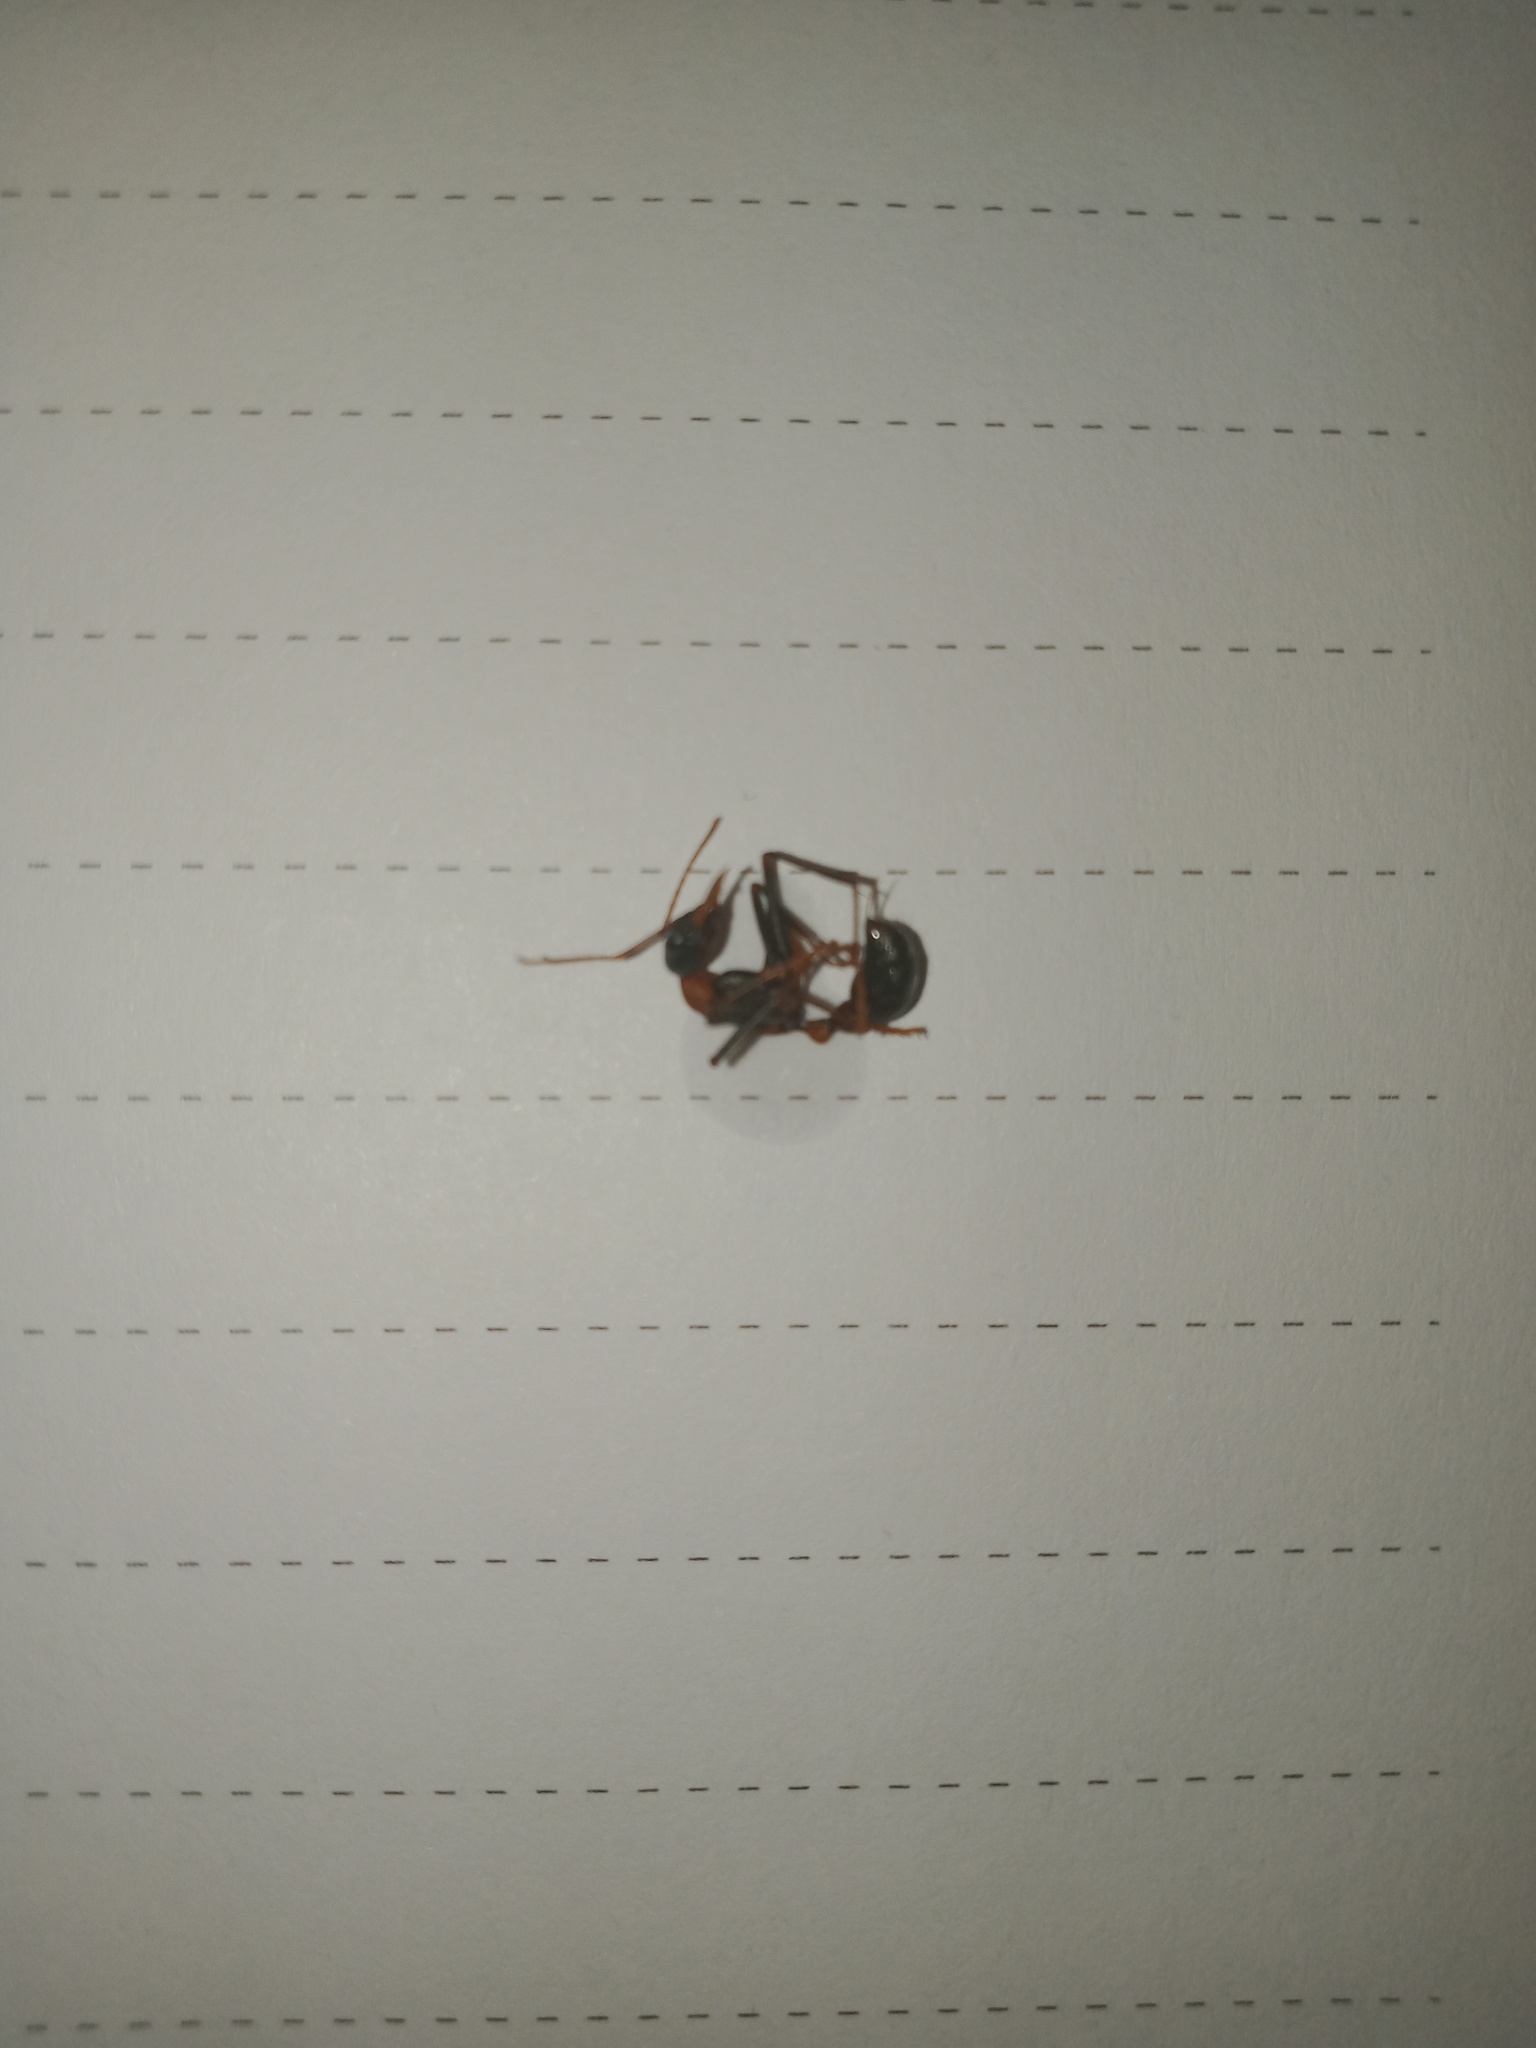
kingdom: Animalia
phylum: Arthropoda
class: Insecta
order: Hymenoptera
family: Formicidae
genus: Myrmecia
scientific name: Myrmecia nigrocincta
